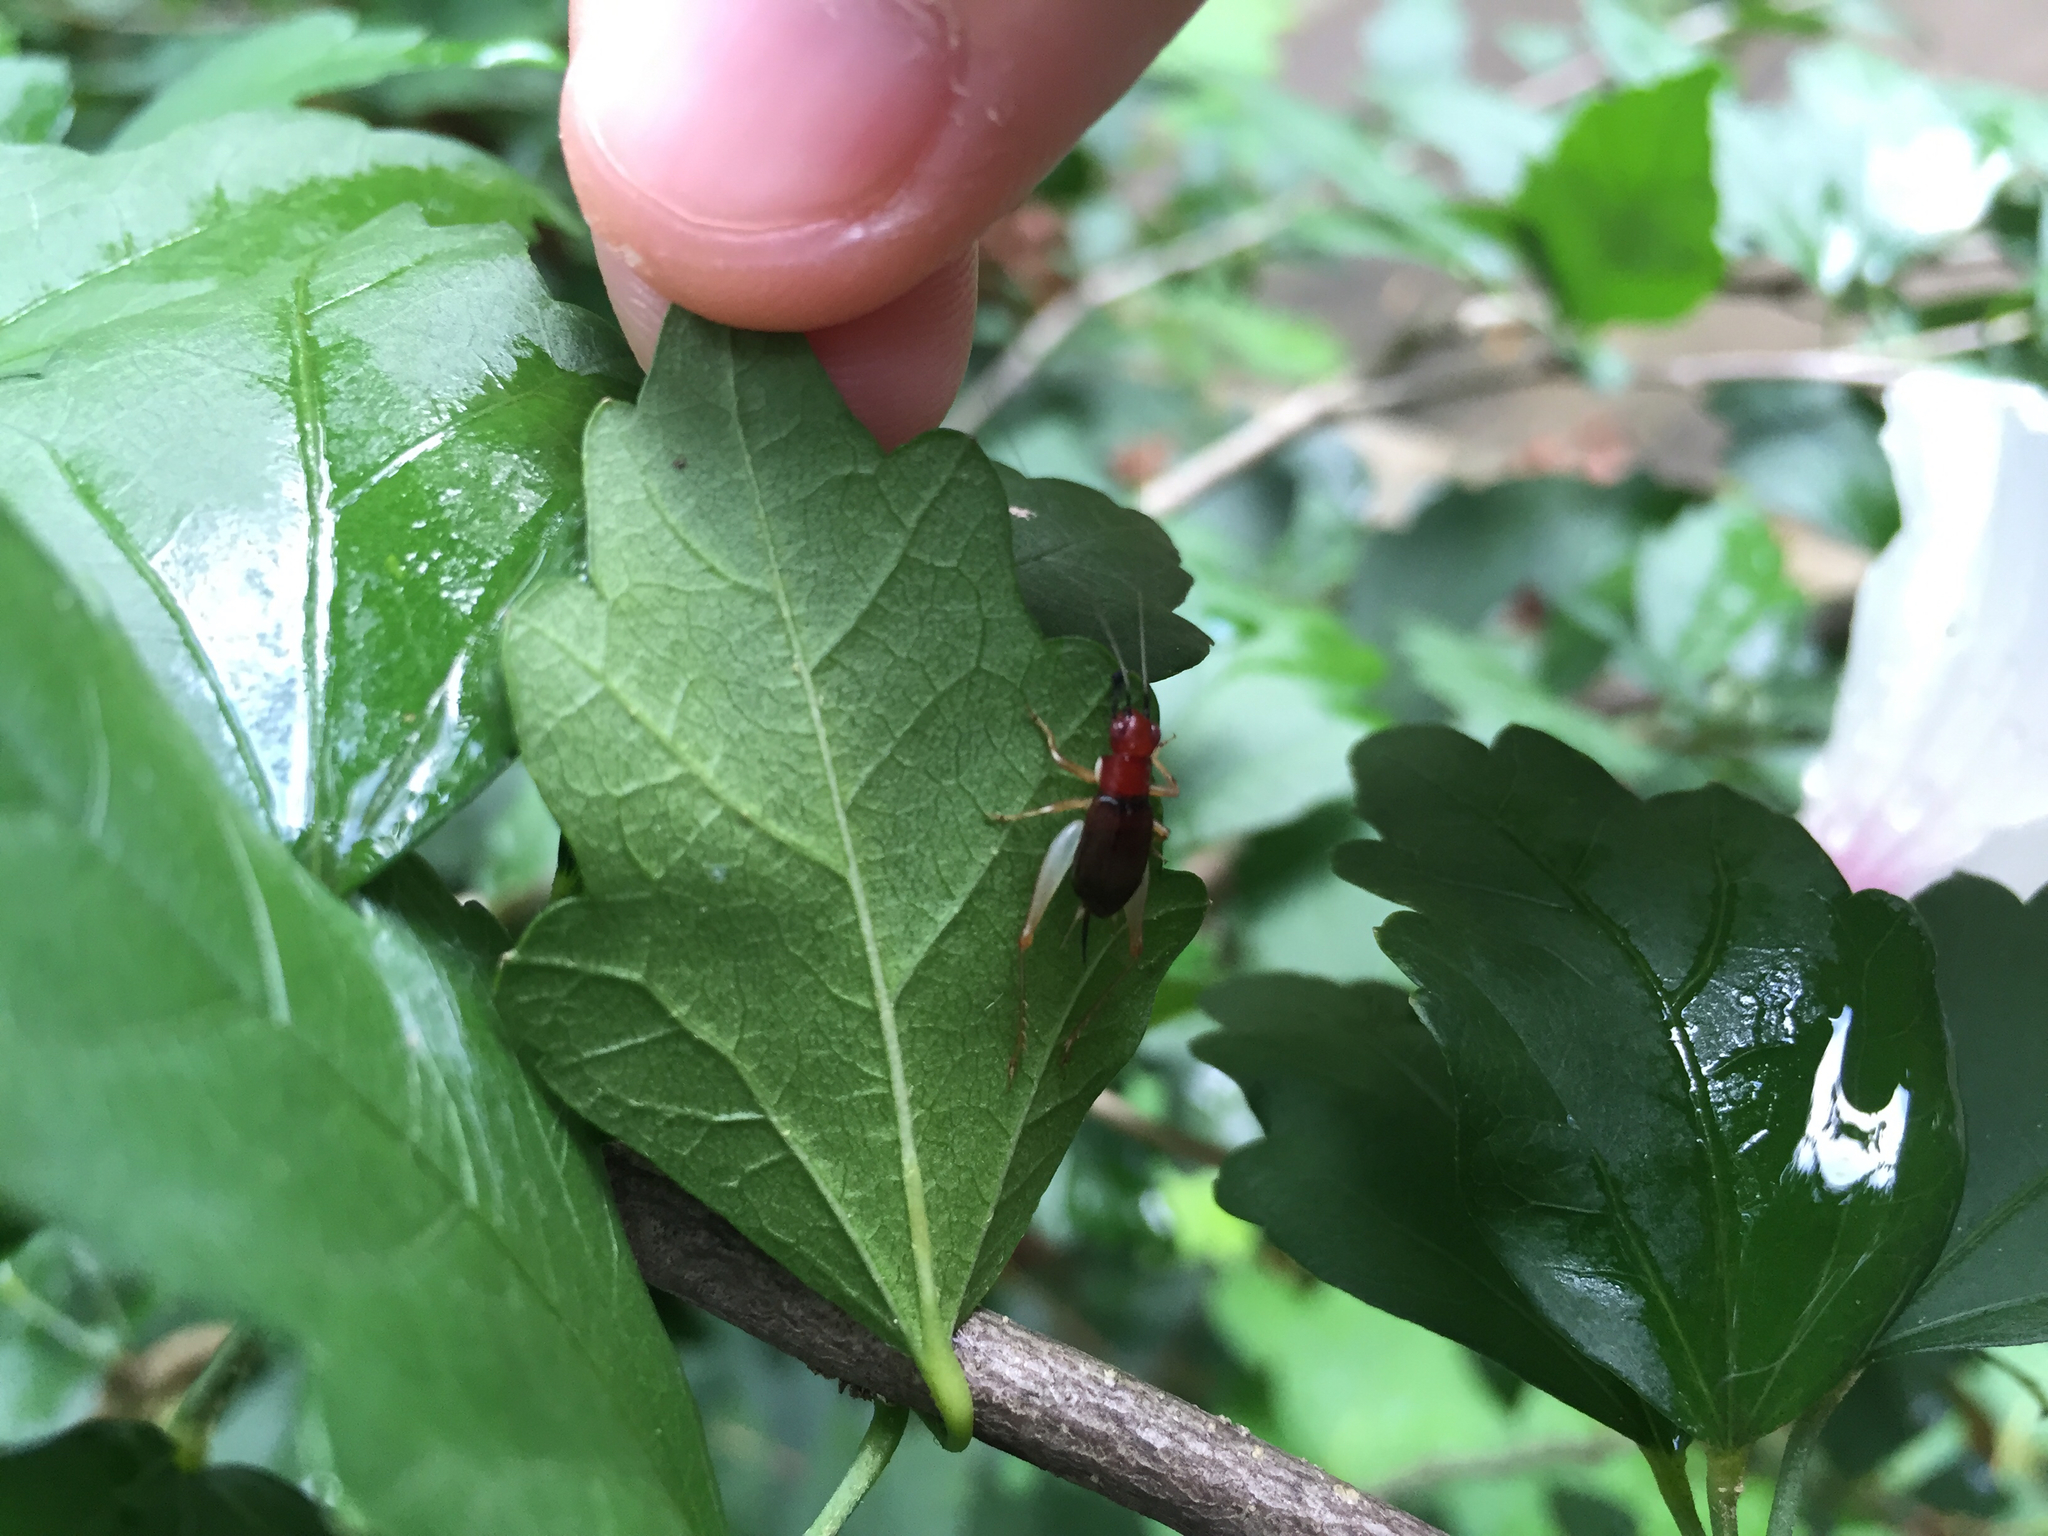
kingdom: Animalia
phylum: Arthropoda
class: Insecta
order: Orthoptera
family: Trigonidiidae
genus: Phyllopalpus
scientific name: Phyllopalpus pulchellus
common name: Handsome trig
